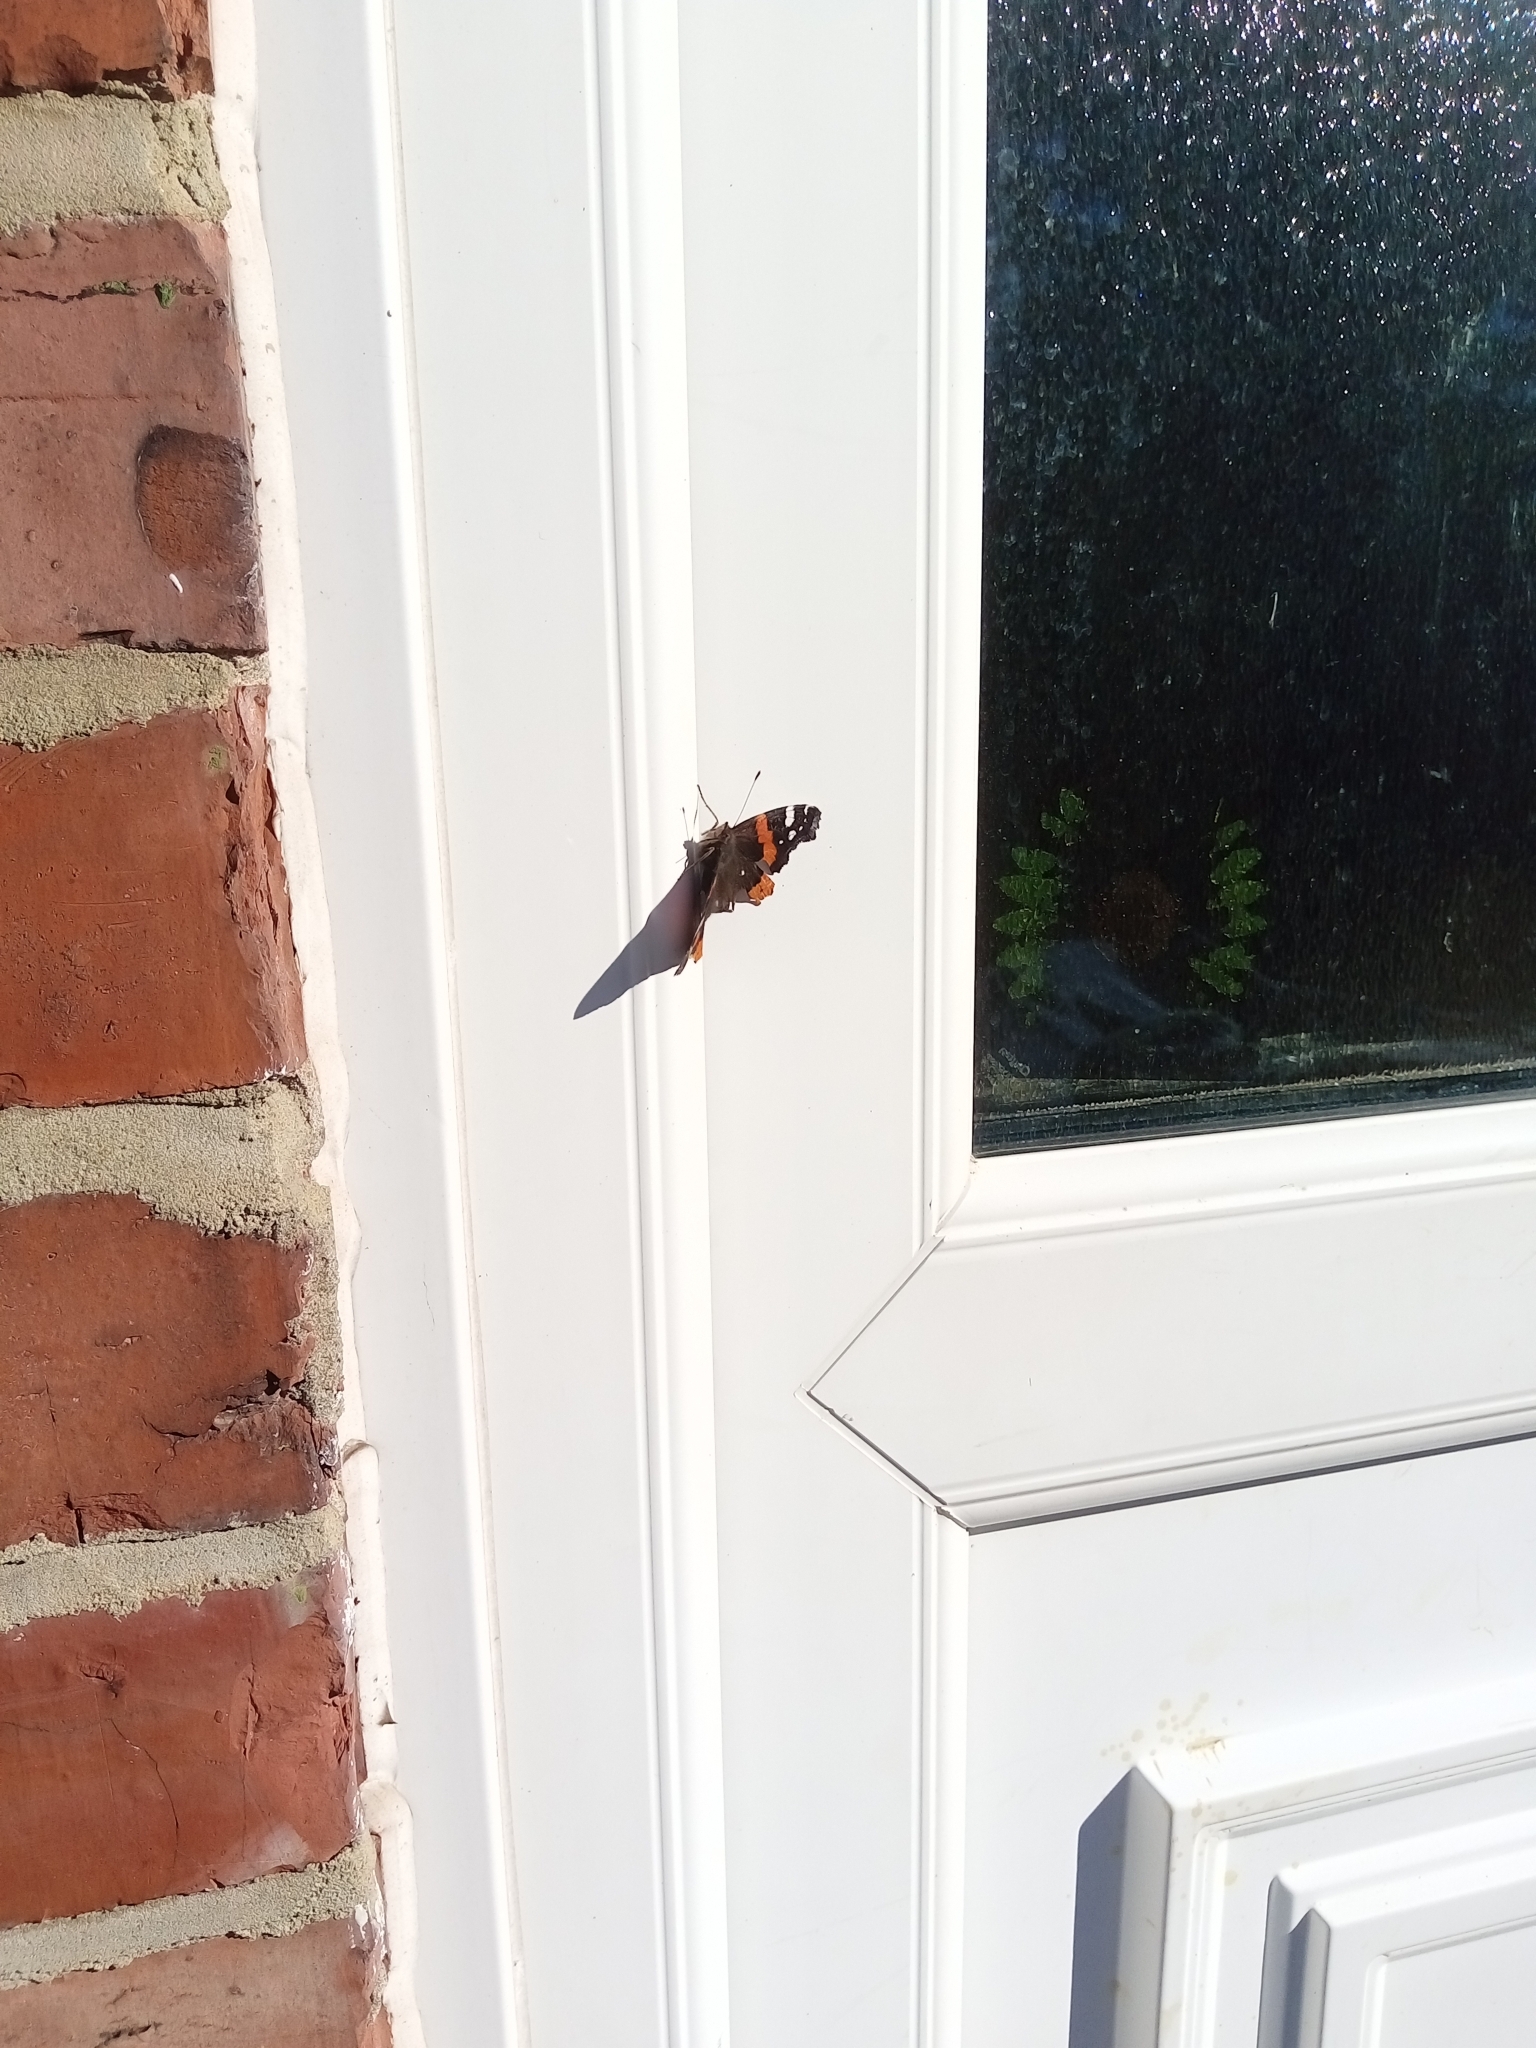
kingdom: Animalia
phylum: Arthropoda
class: Insecta
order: Lepidoptera
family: Nymphalidae
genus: Vanessa
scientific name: Vanessa atalanta
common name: Red admiral
